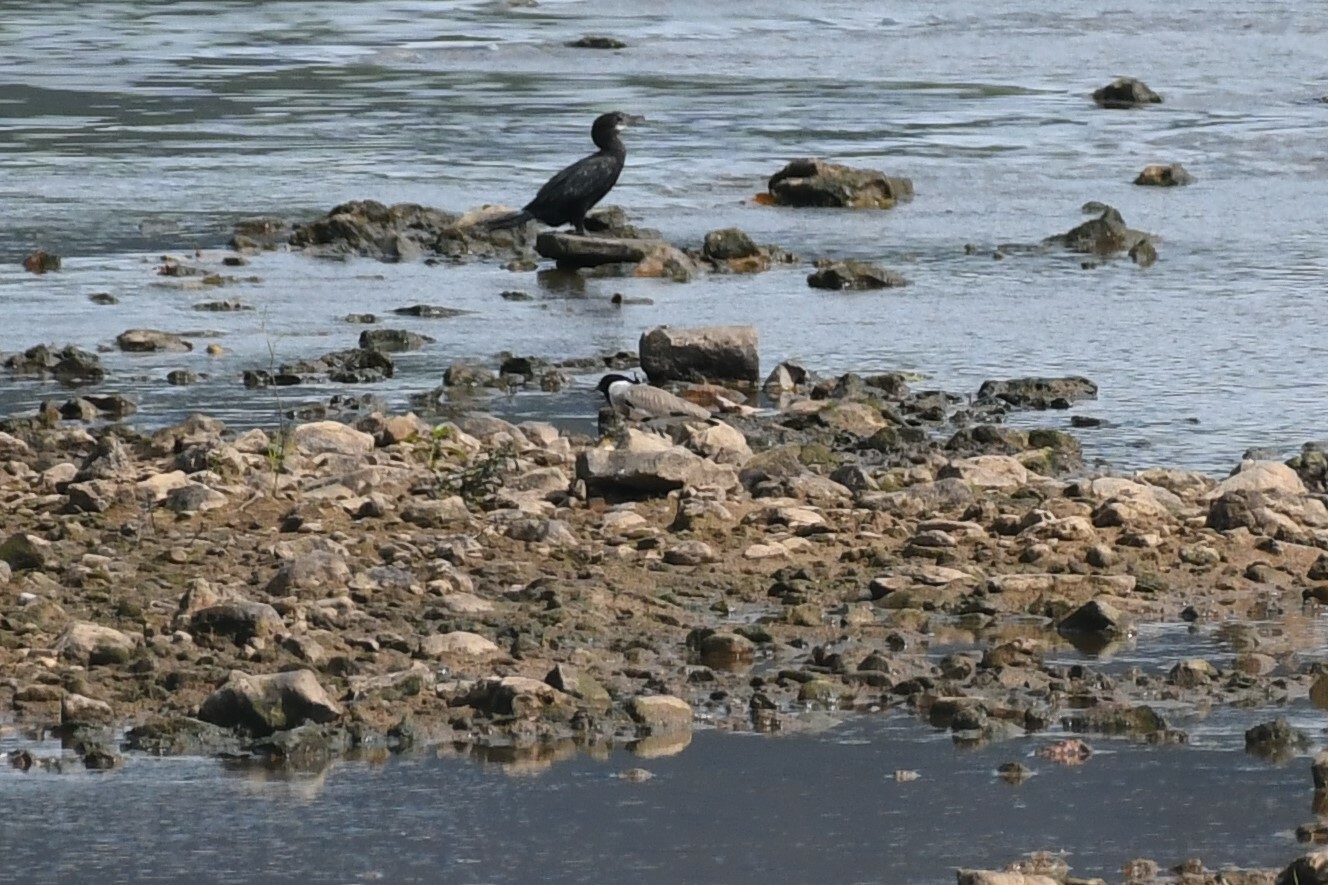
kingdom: Animalia
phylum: Chordata
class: Aves
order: Charadriiformes
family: Charadriidae
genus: Vanellus
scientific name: Vanellus duvaucelii
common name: River lapwing
